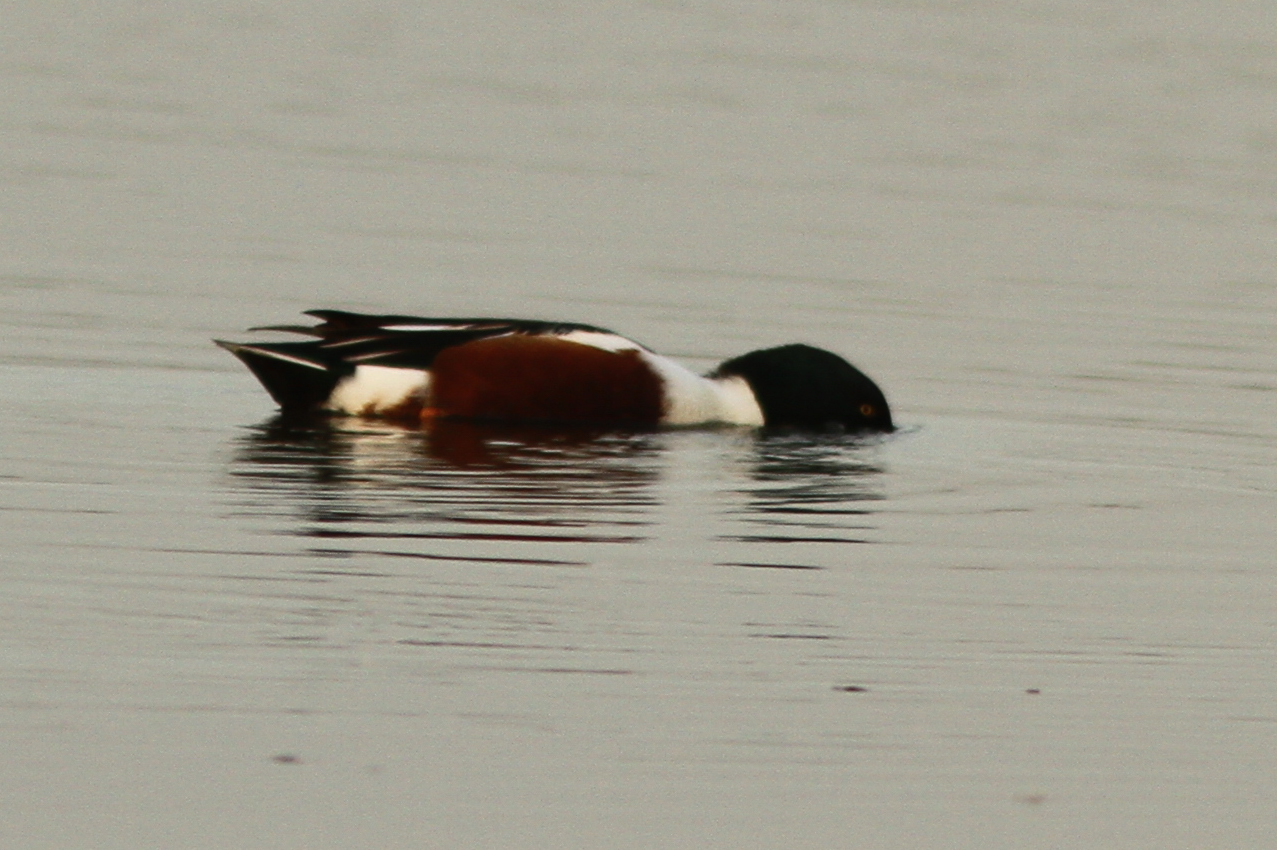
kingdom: Animalia
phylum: Chordata
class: Aves
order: Anseriformes
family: Anatidae
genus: Spatula
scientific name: Spatula clypeata
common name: Northern shoveler
